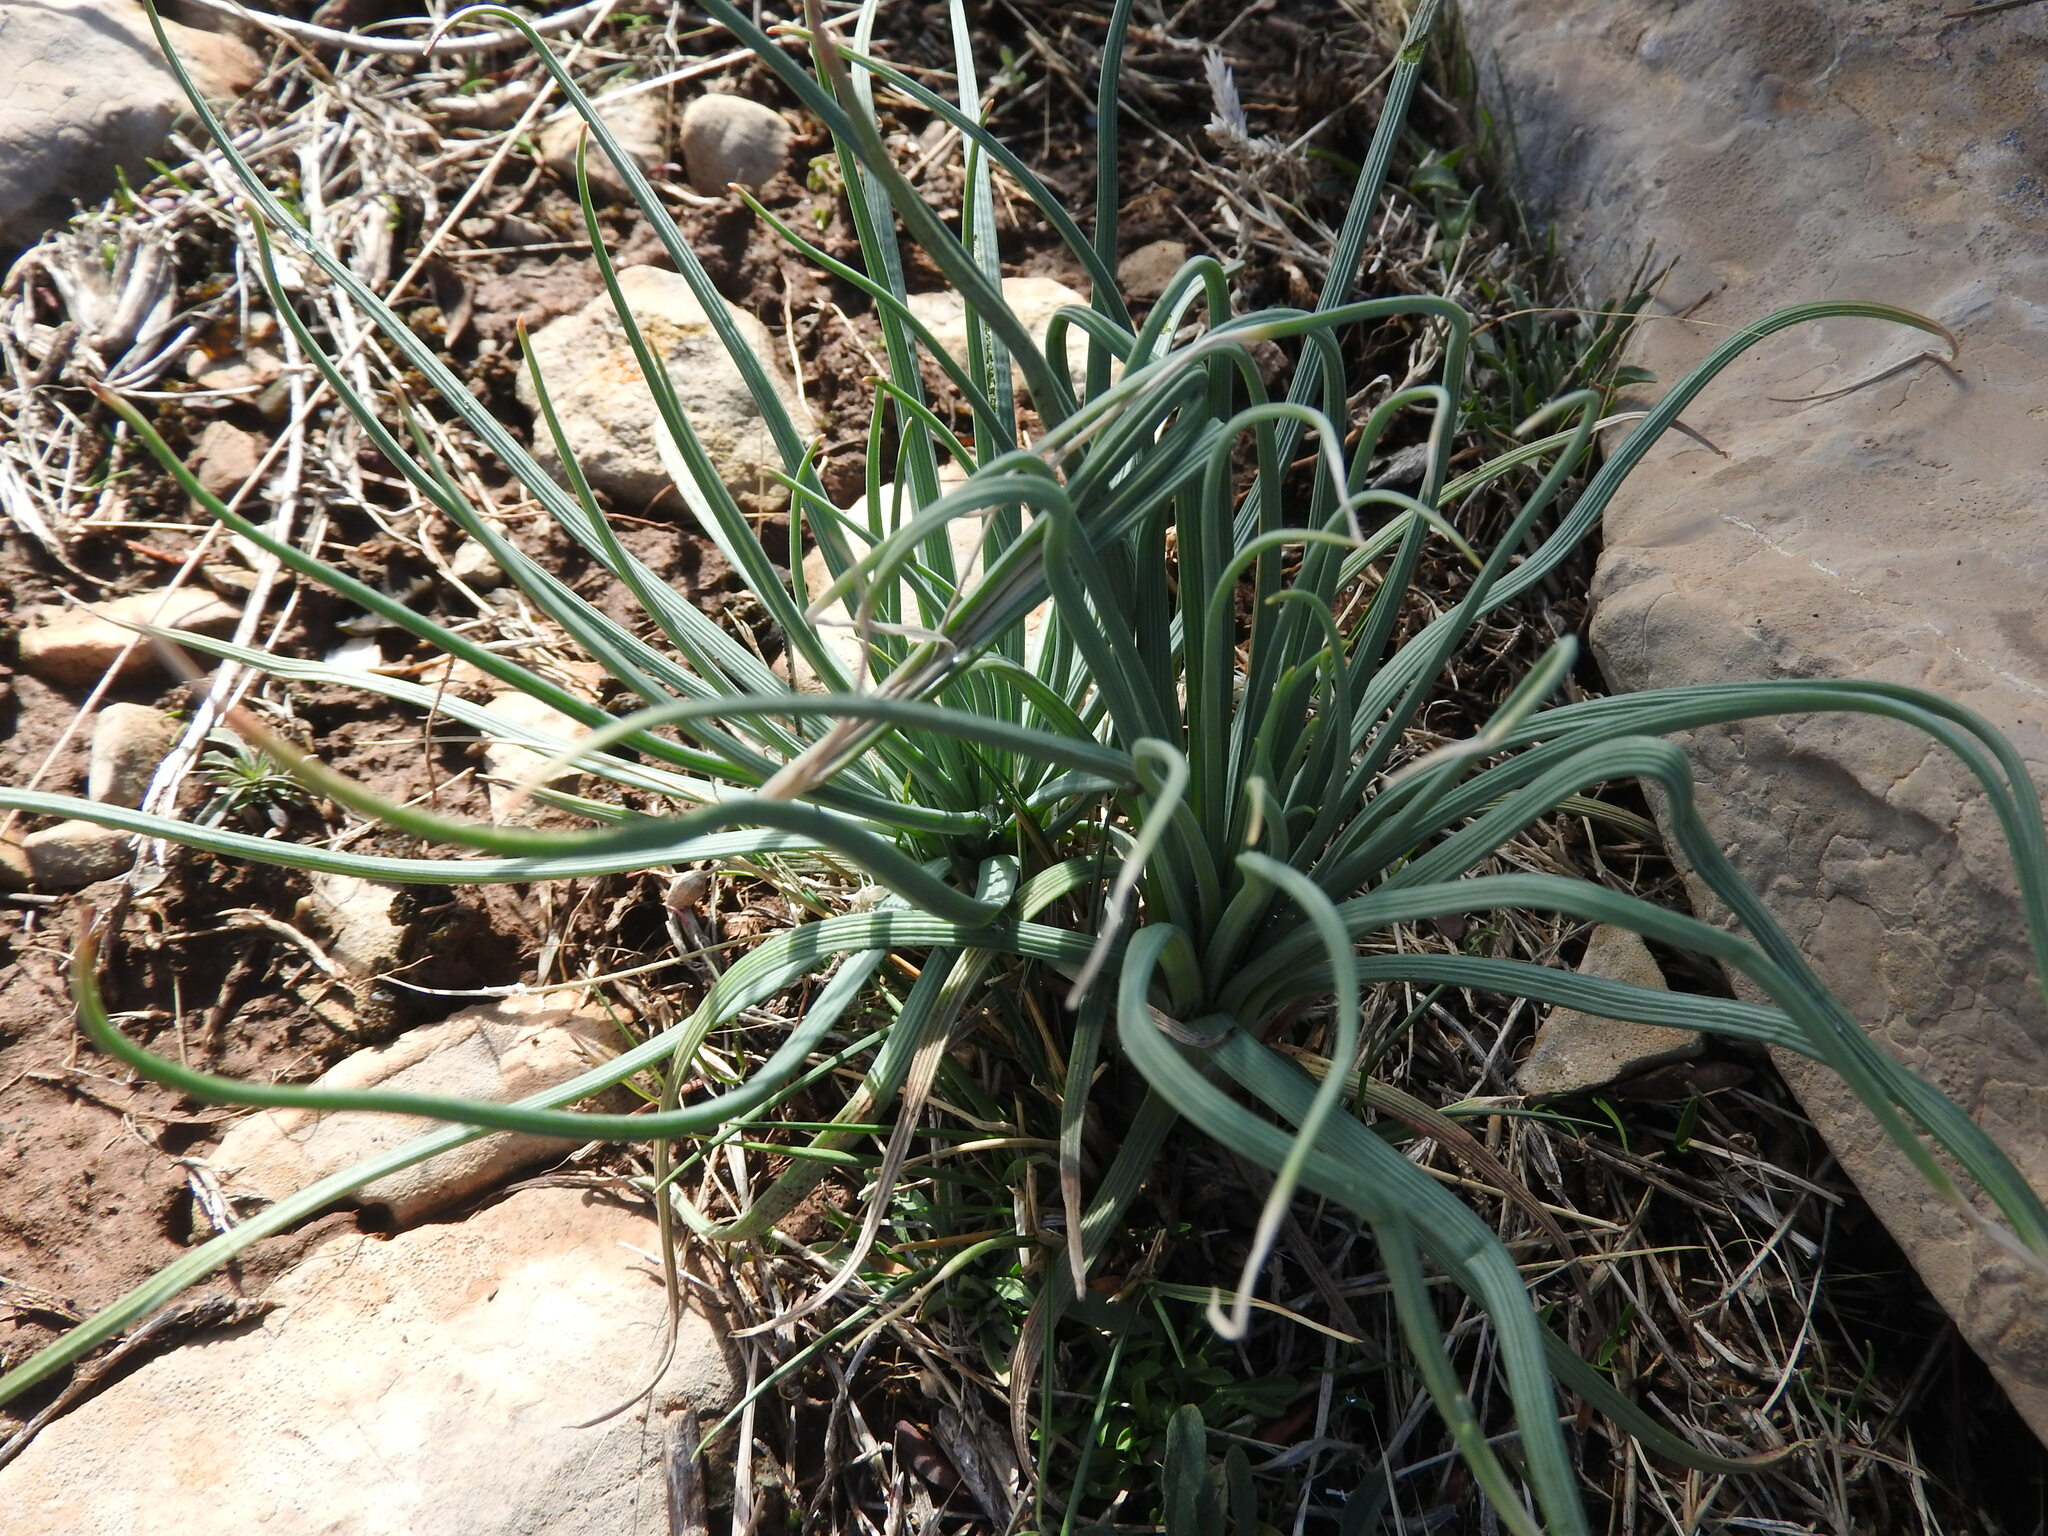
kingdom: Plantae
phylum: Tracheophyta
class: Liliopsida
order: Asparagales
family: Asphodelaceae
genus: Asphodeline
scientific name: Asphodeline lutea
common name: Yellow asphodel
